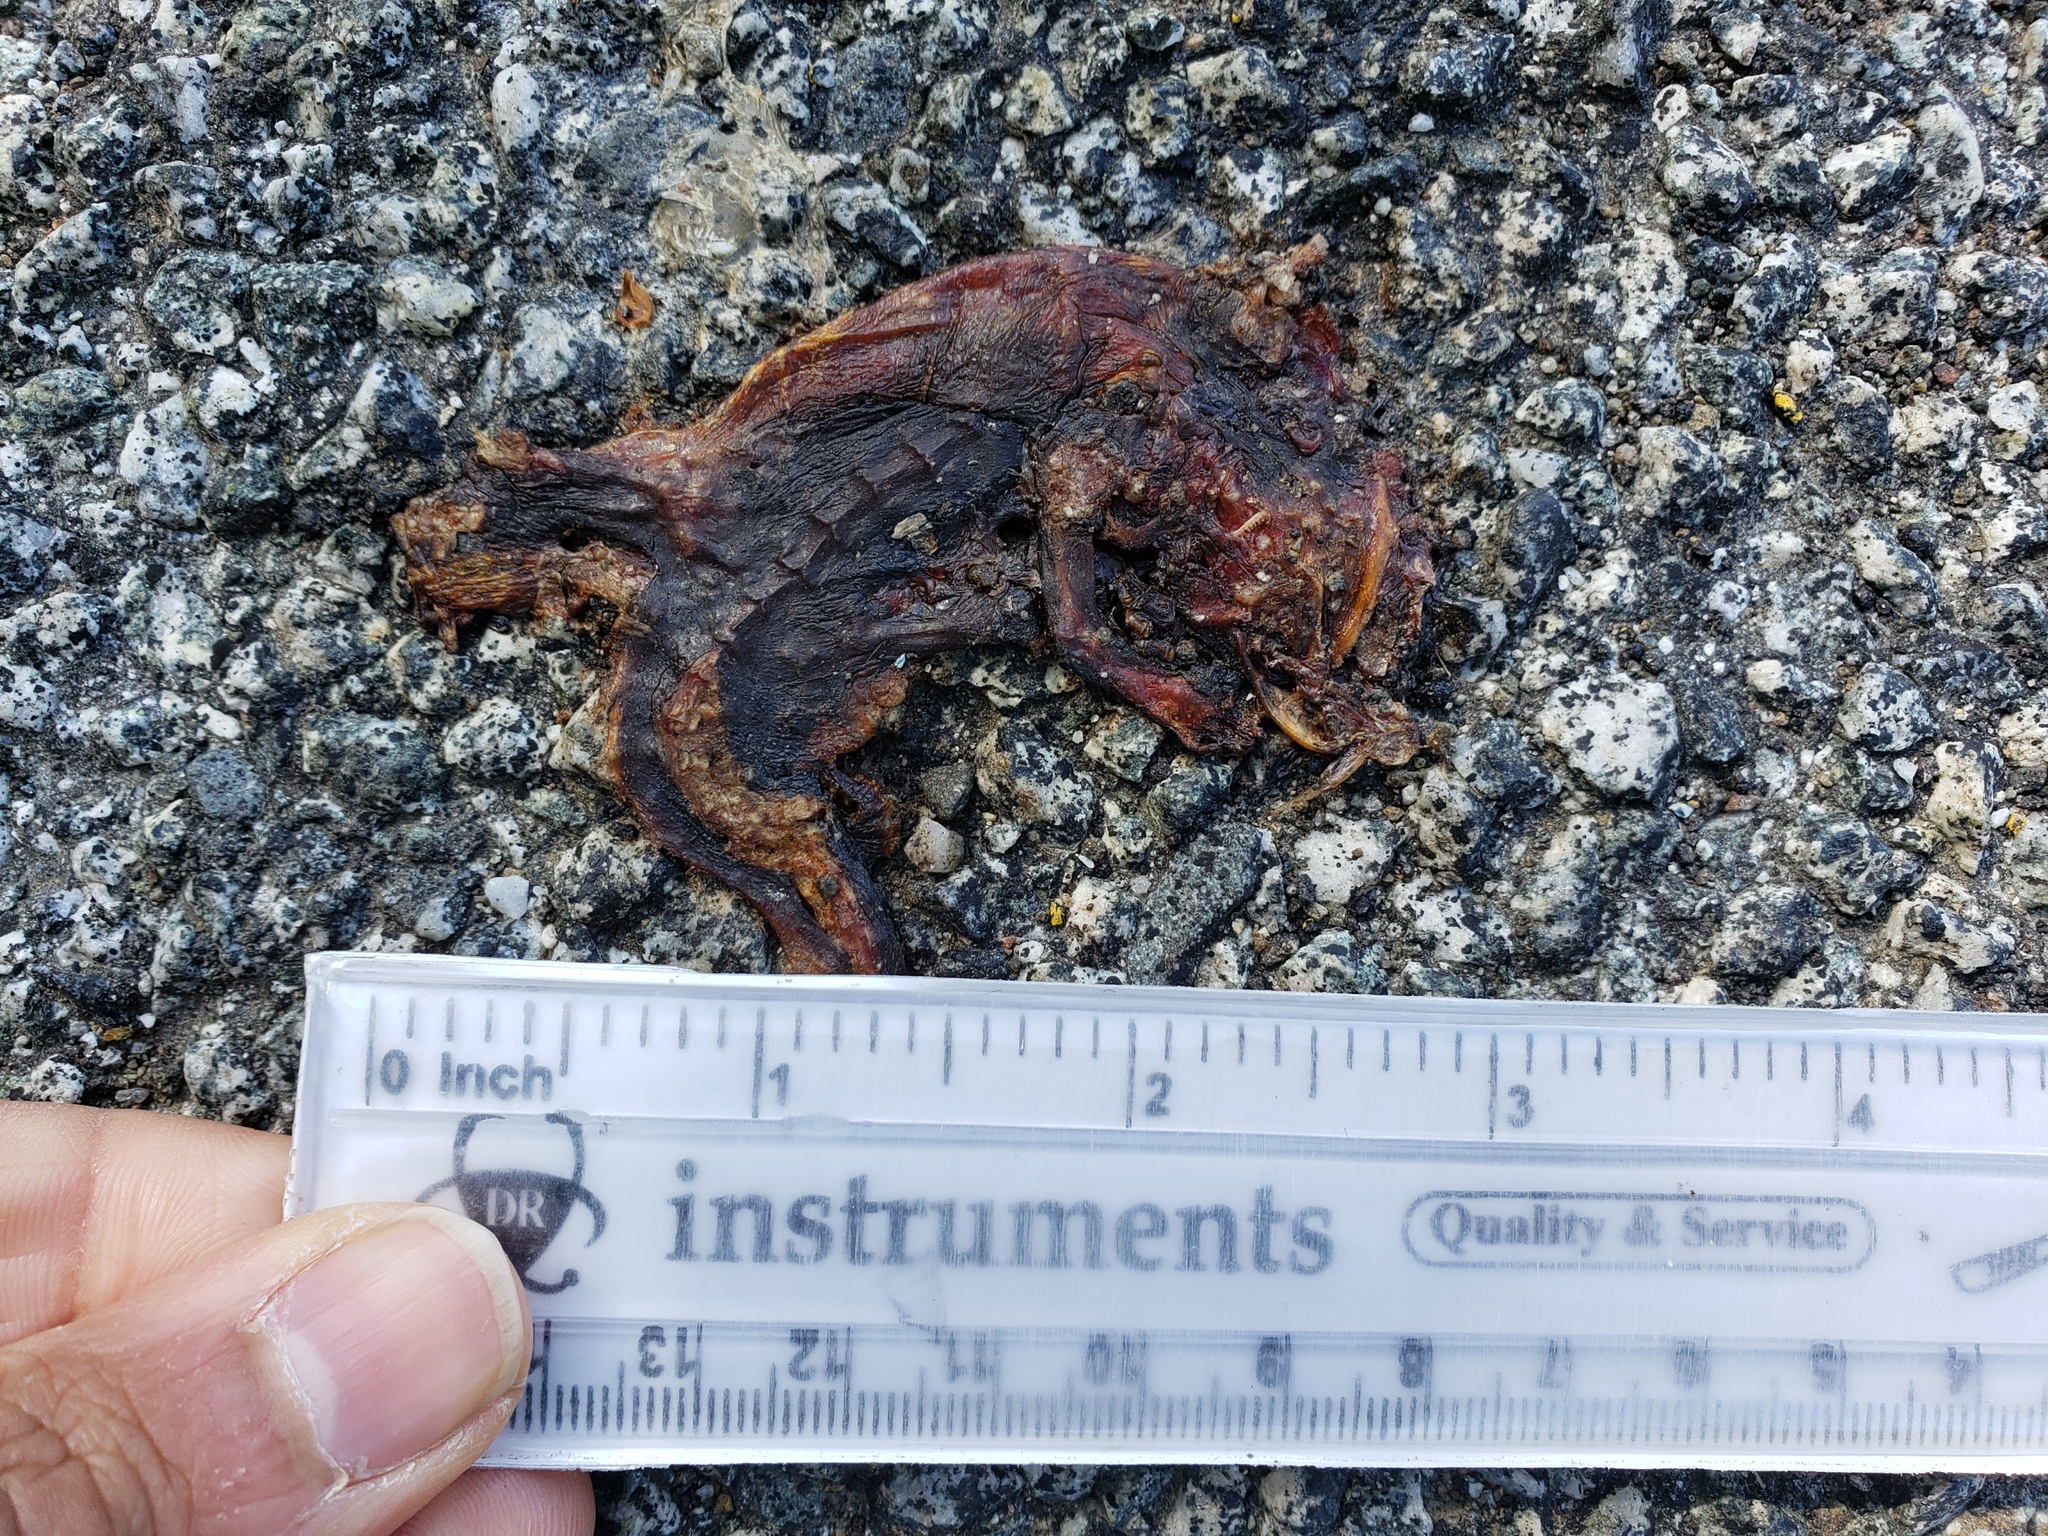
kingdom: Animalia
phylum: Chordata
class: Amphibia
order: Caudata
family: Salamandridae
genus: Taricha
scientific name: Taricha
